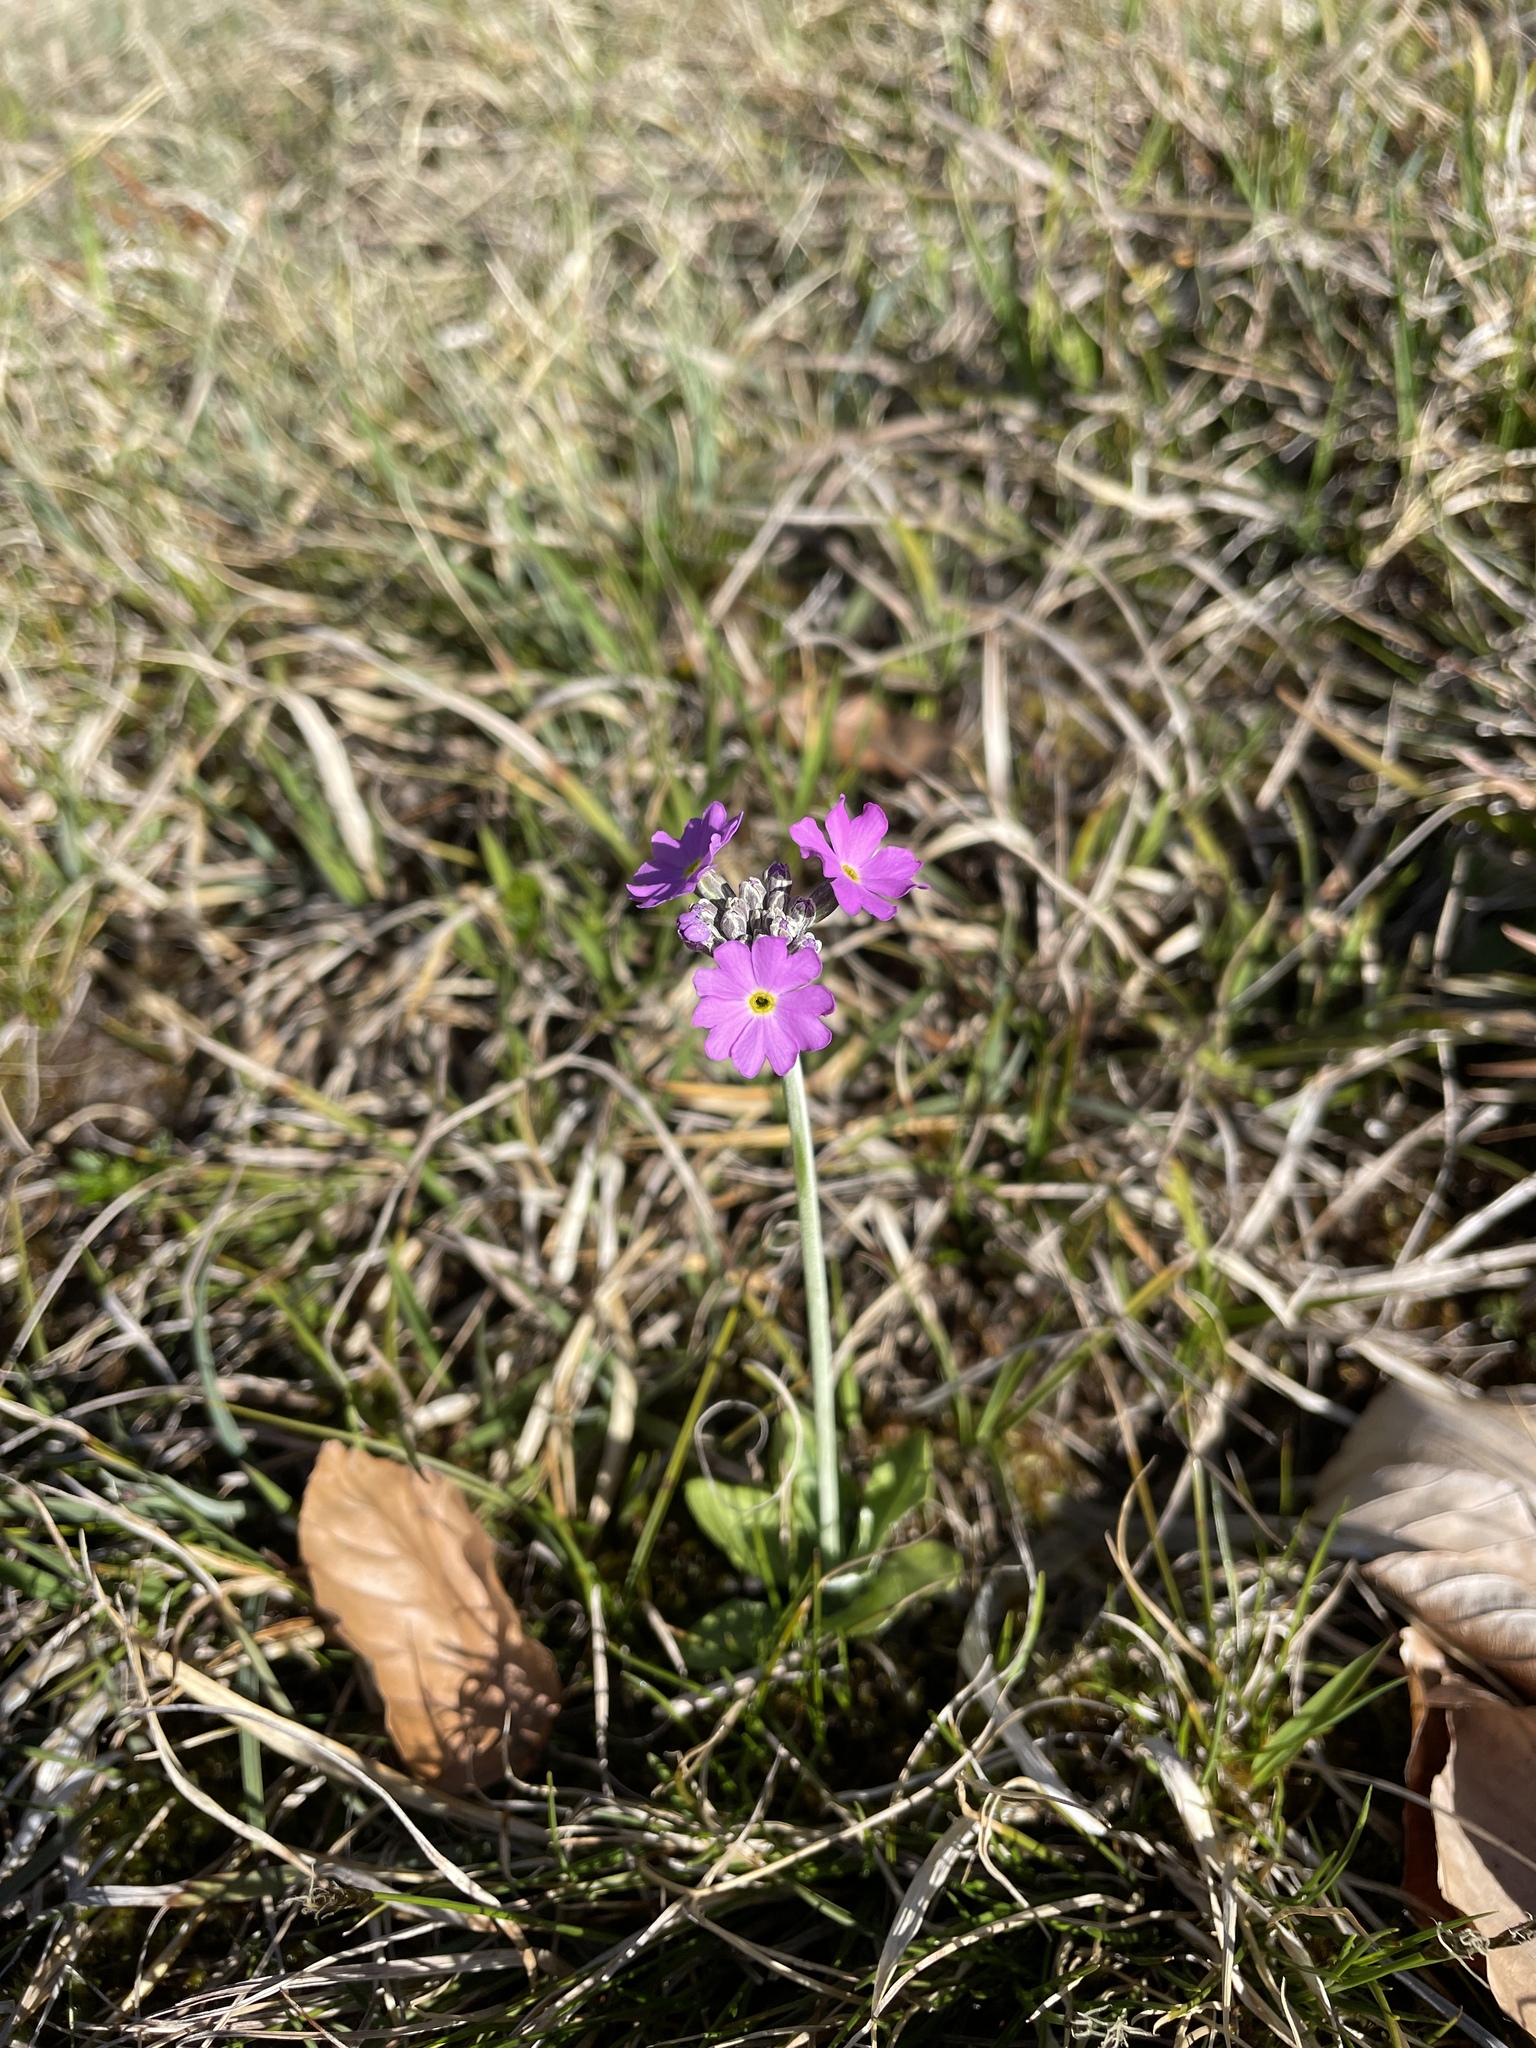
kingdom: Plantae
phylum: Tracheophyta
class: Magnoliopsida
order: Ericales
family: Primulaceae
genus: Primula
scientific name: Primula farinosa
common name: Bird's-eye primrose
